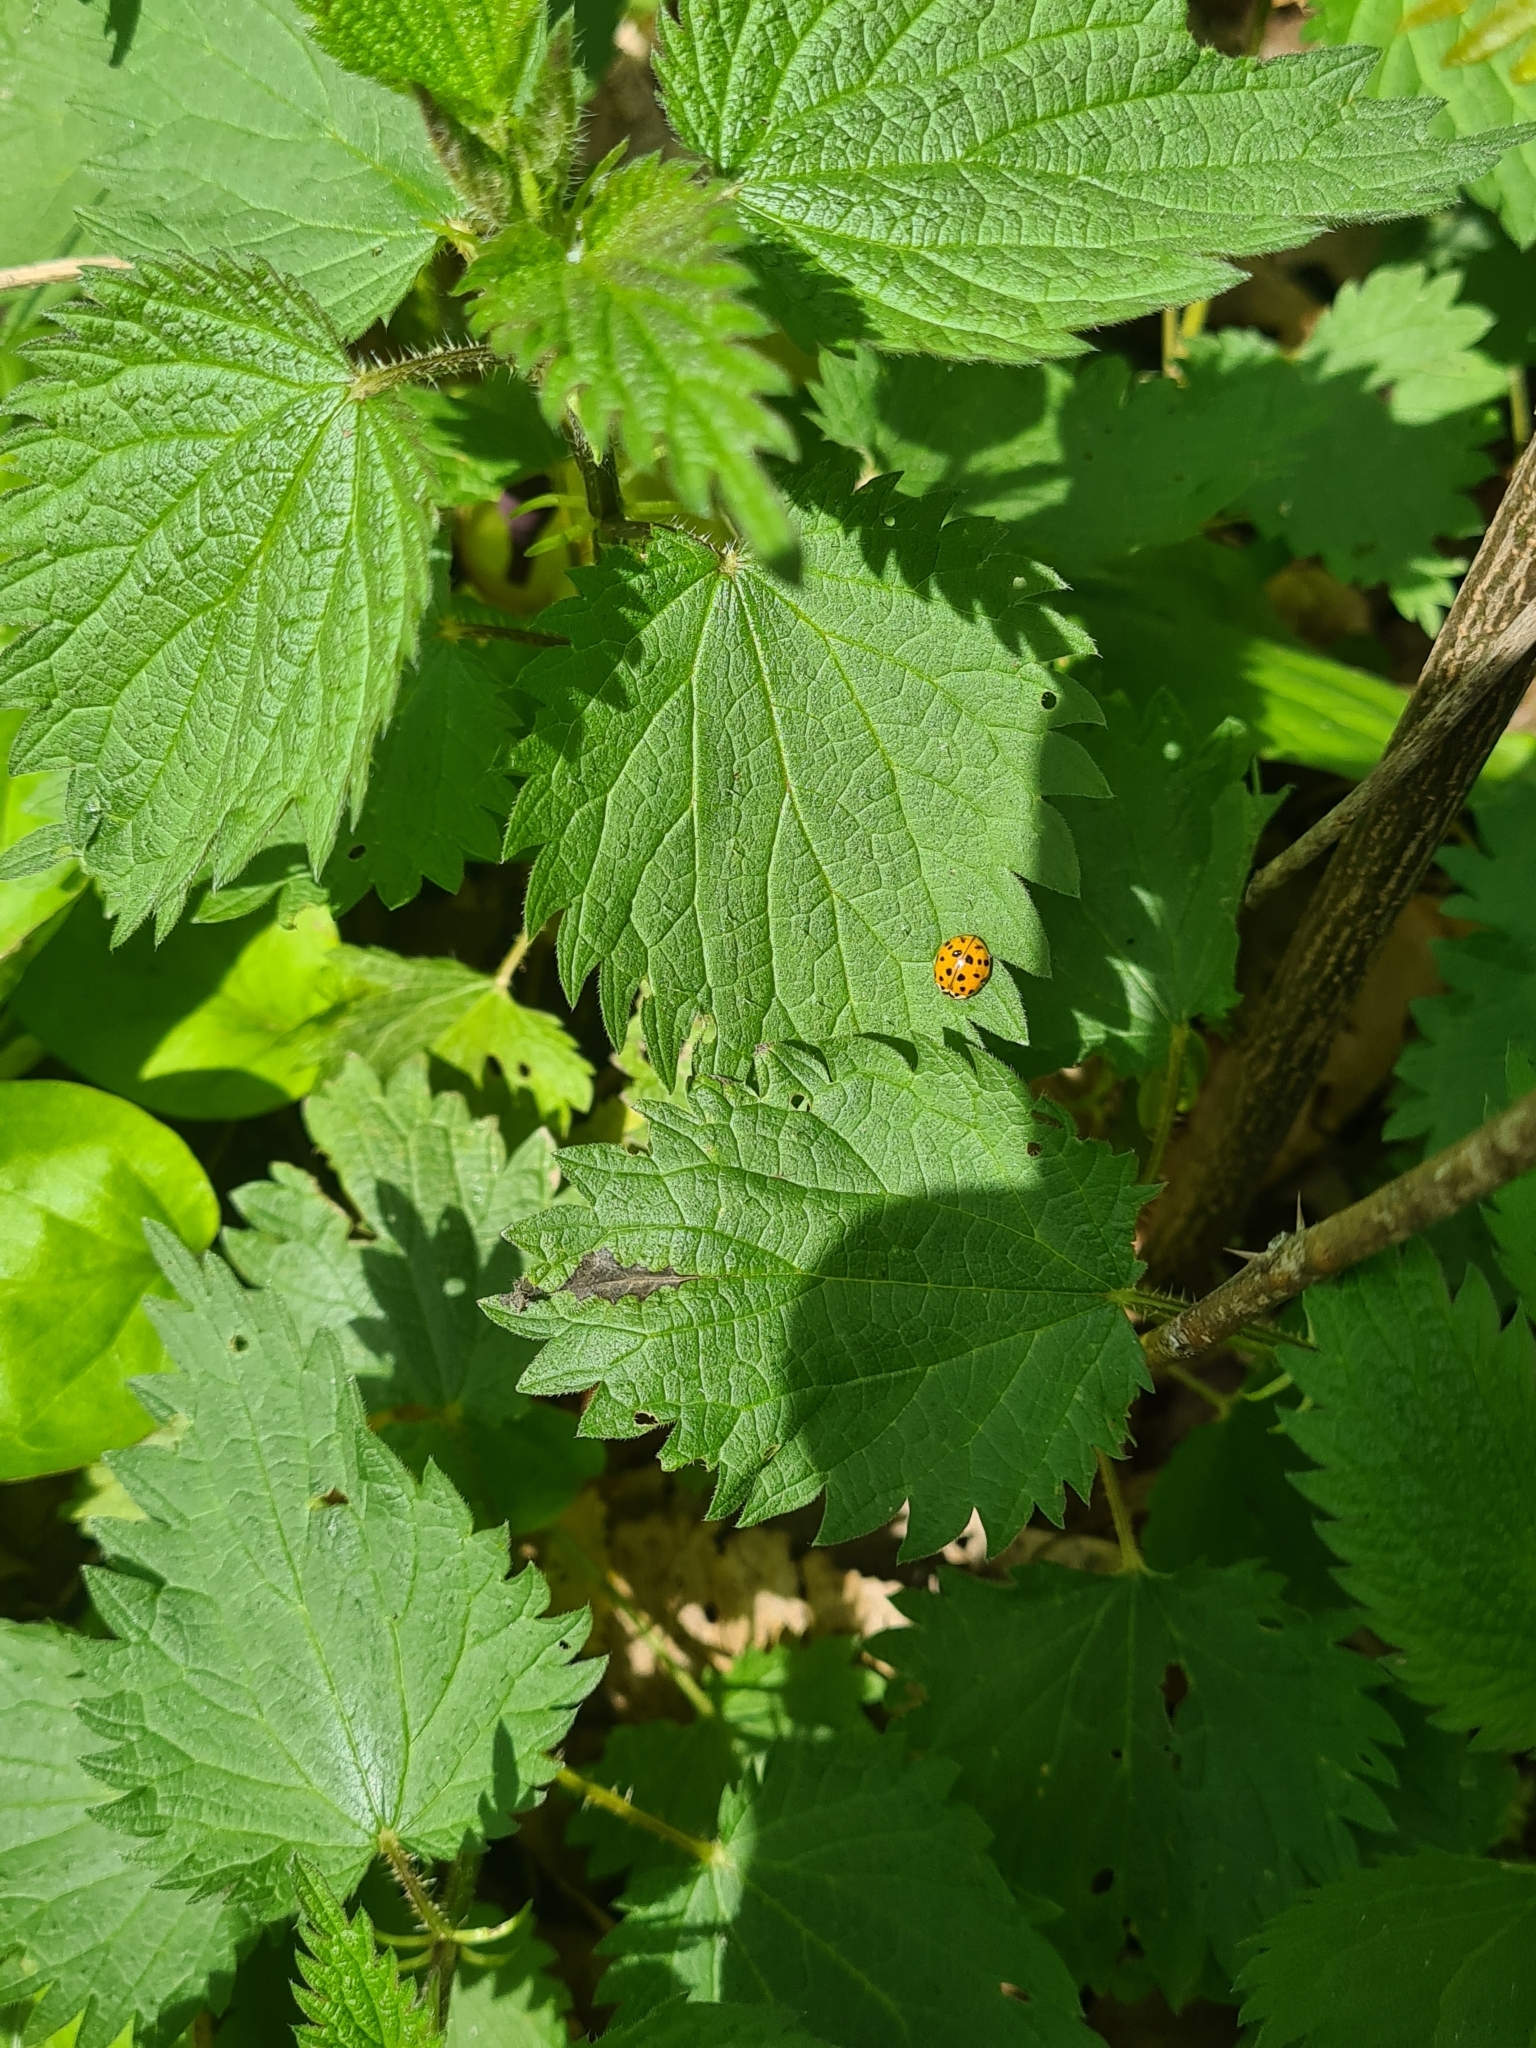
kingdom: Animalia
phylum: Arthropoda
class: Insecta
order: Coleoptera
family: Coccinellidae
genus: Harmonia
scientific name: Harmonia axyridis
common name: Harlequin ladybird
